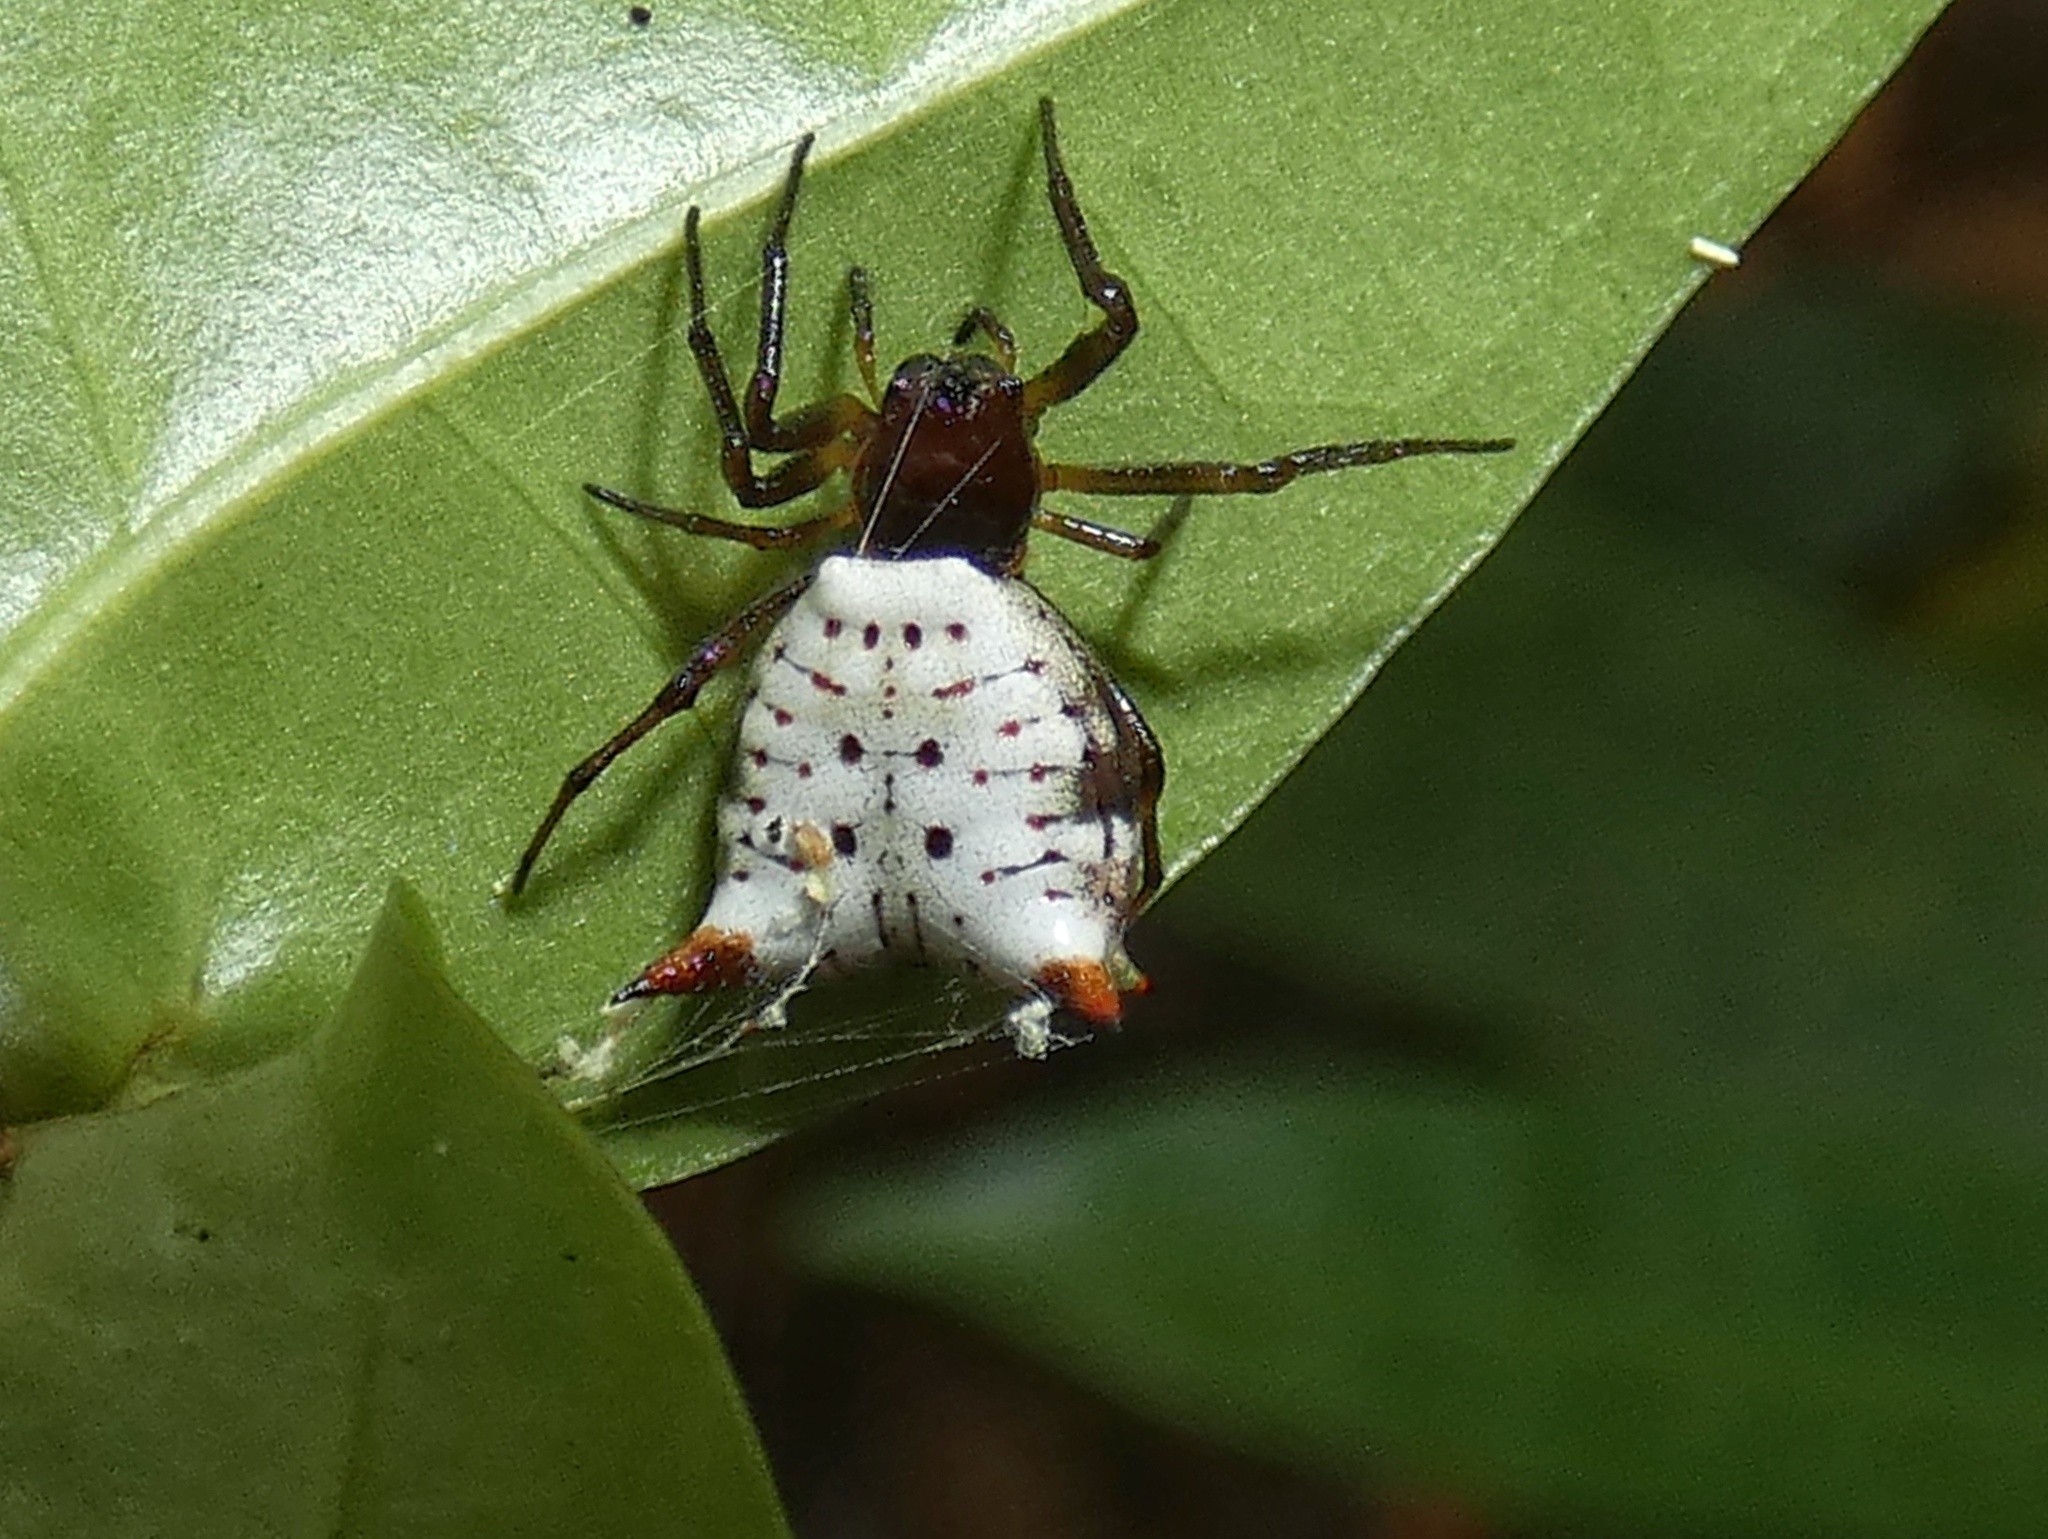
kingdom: Animalia
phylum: Arthropoda
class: Arachnida
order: Araneae
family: Araneidae
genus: Micrathena
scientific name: Micrathena saccata
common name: Orb weavers
